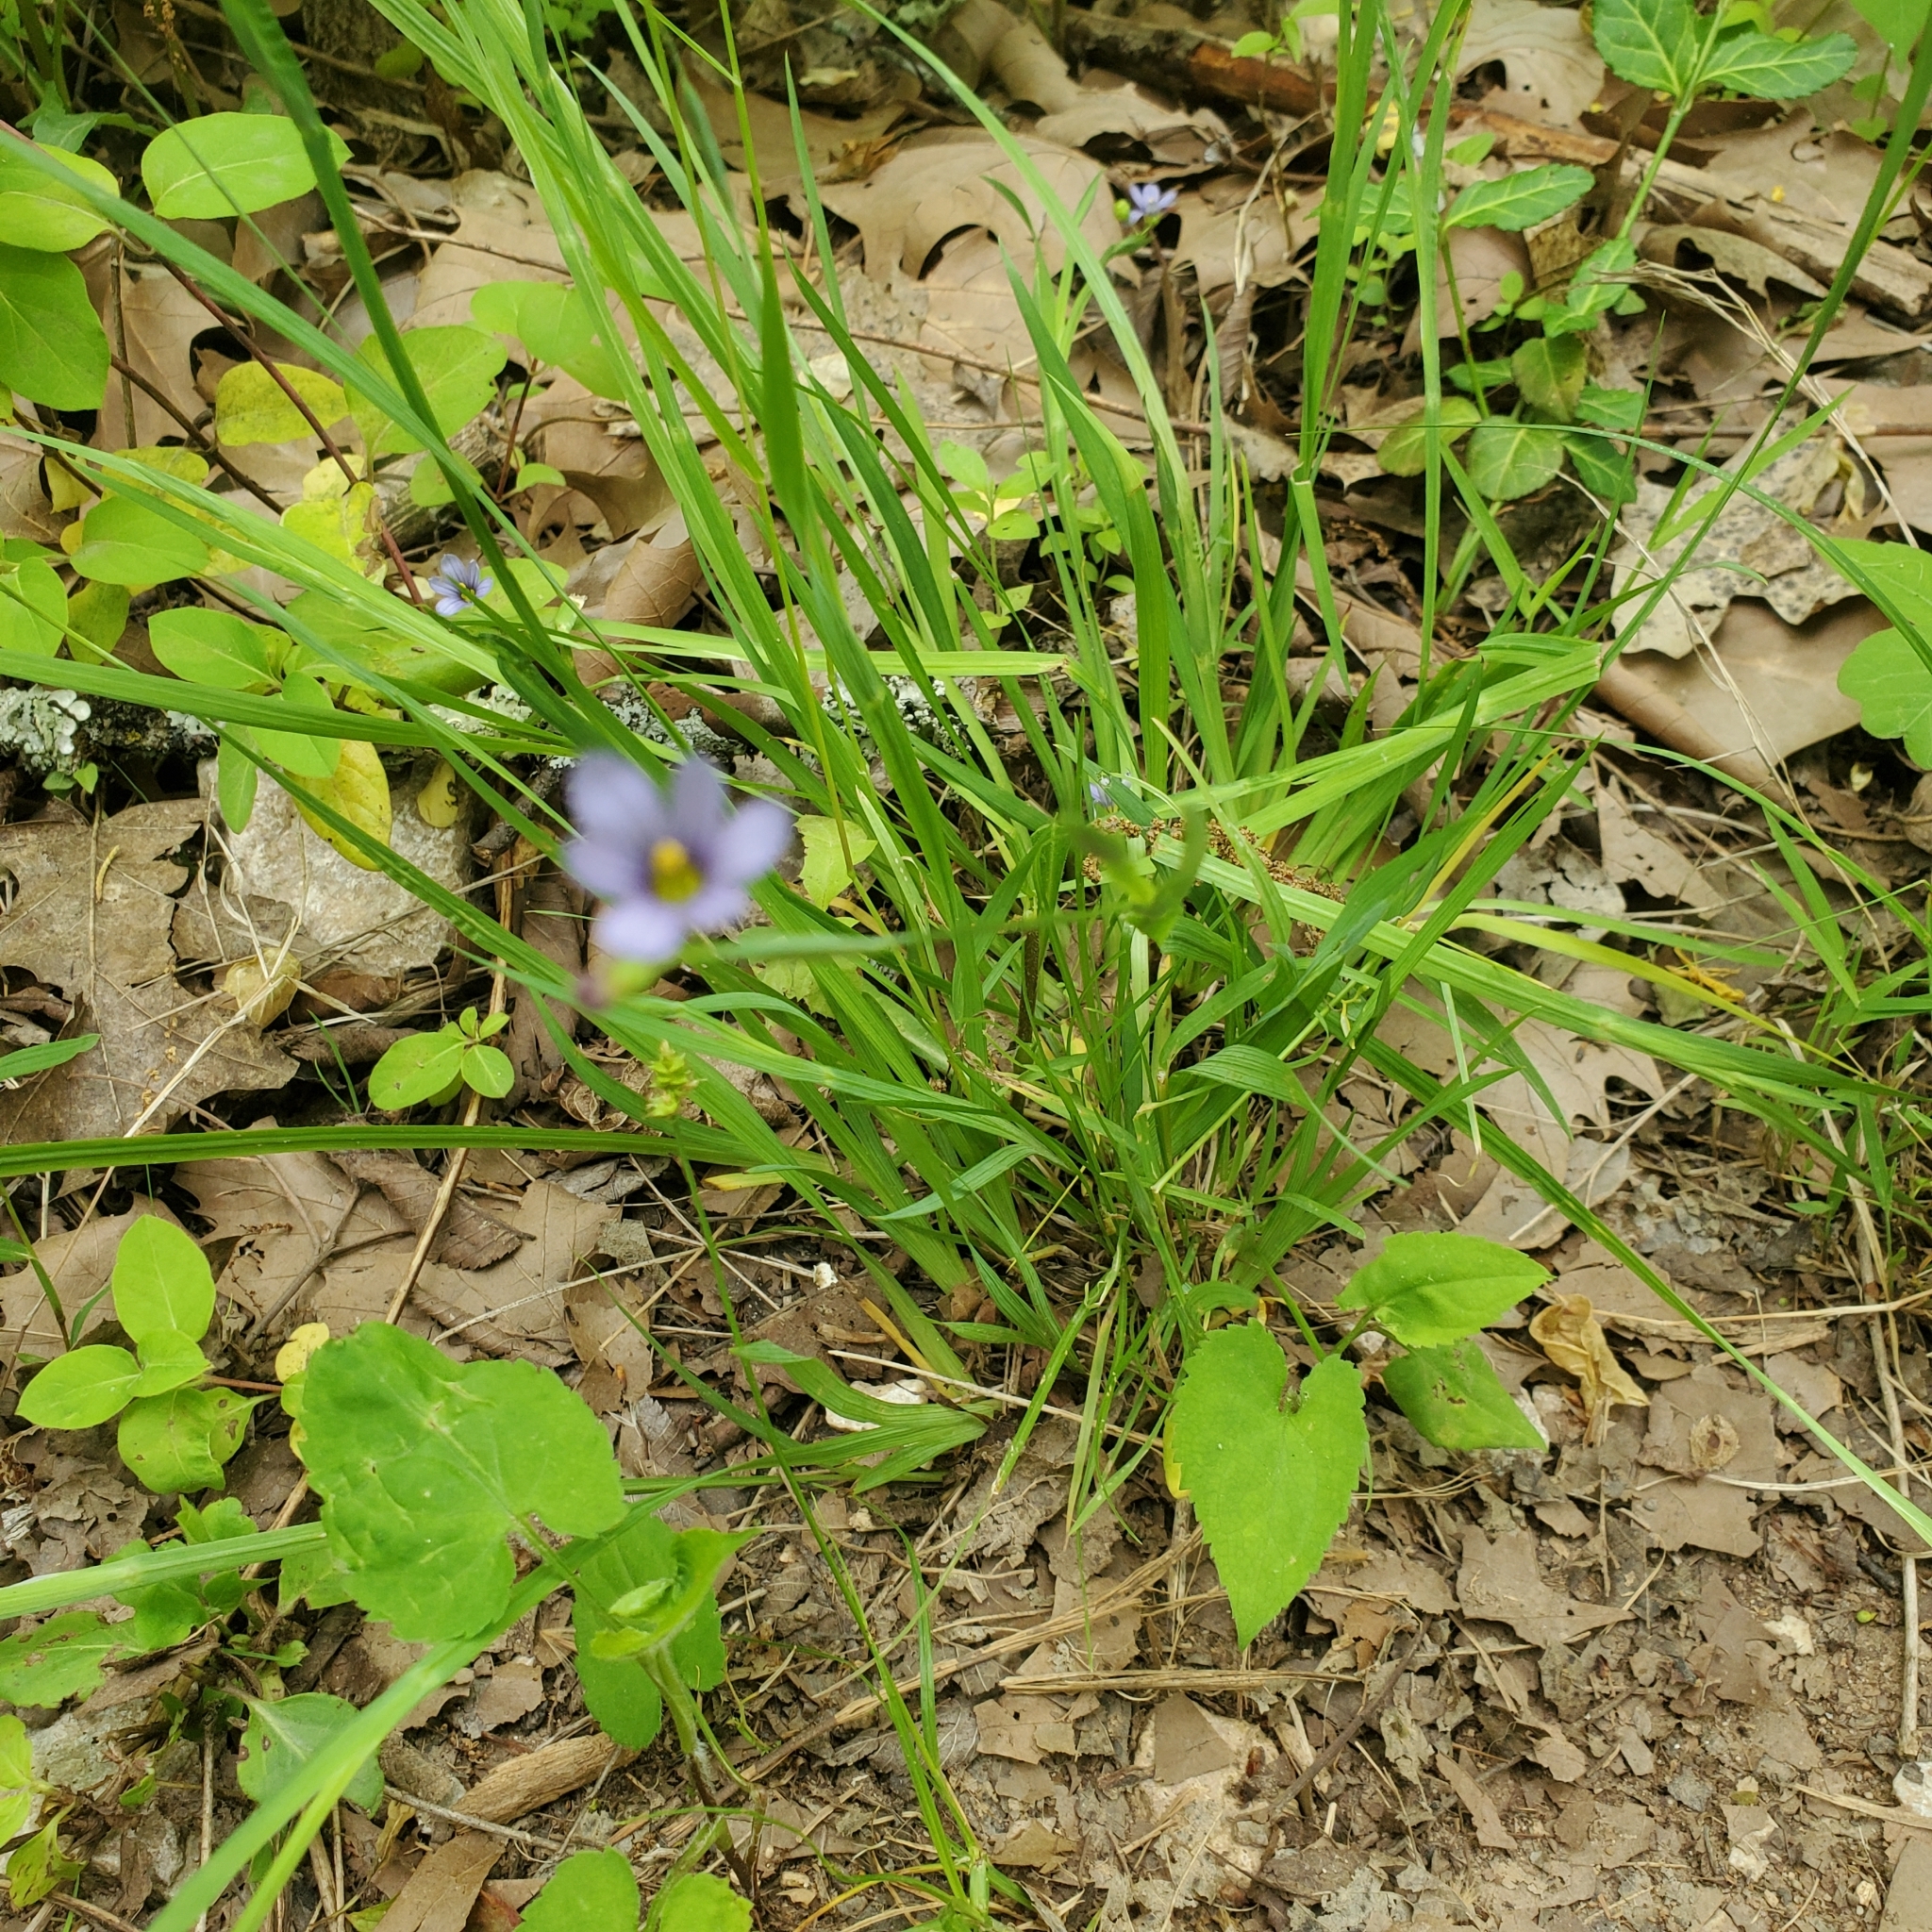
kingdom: Plantae
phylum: Tracheophyta
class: Liliopsida
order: Asparagales
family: Iridaceae
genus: Sisyrinchium
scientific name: Sisyrinchium angustifolium
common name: Narrow-leaf blue-eyed-grass
